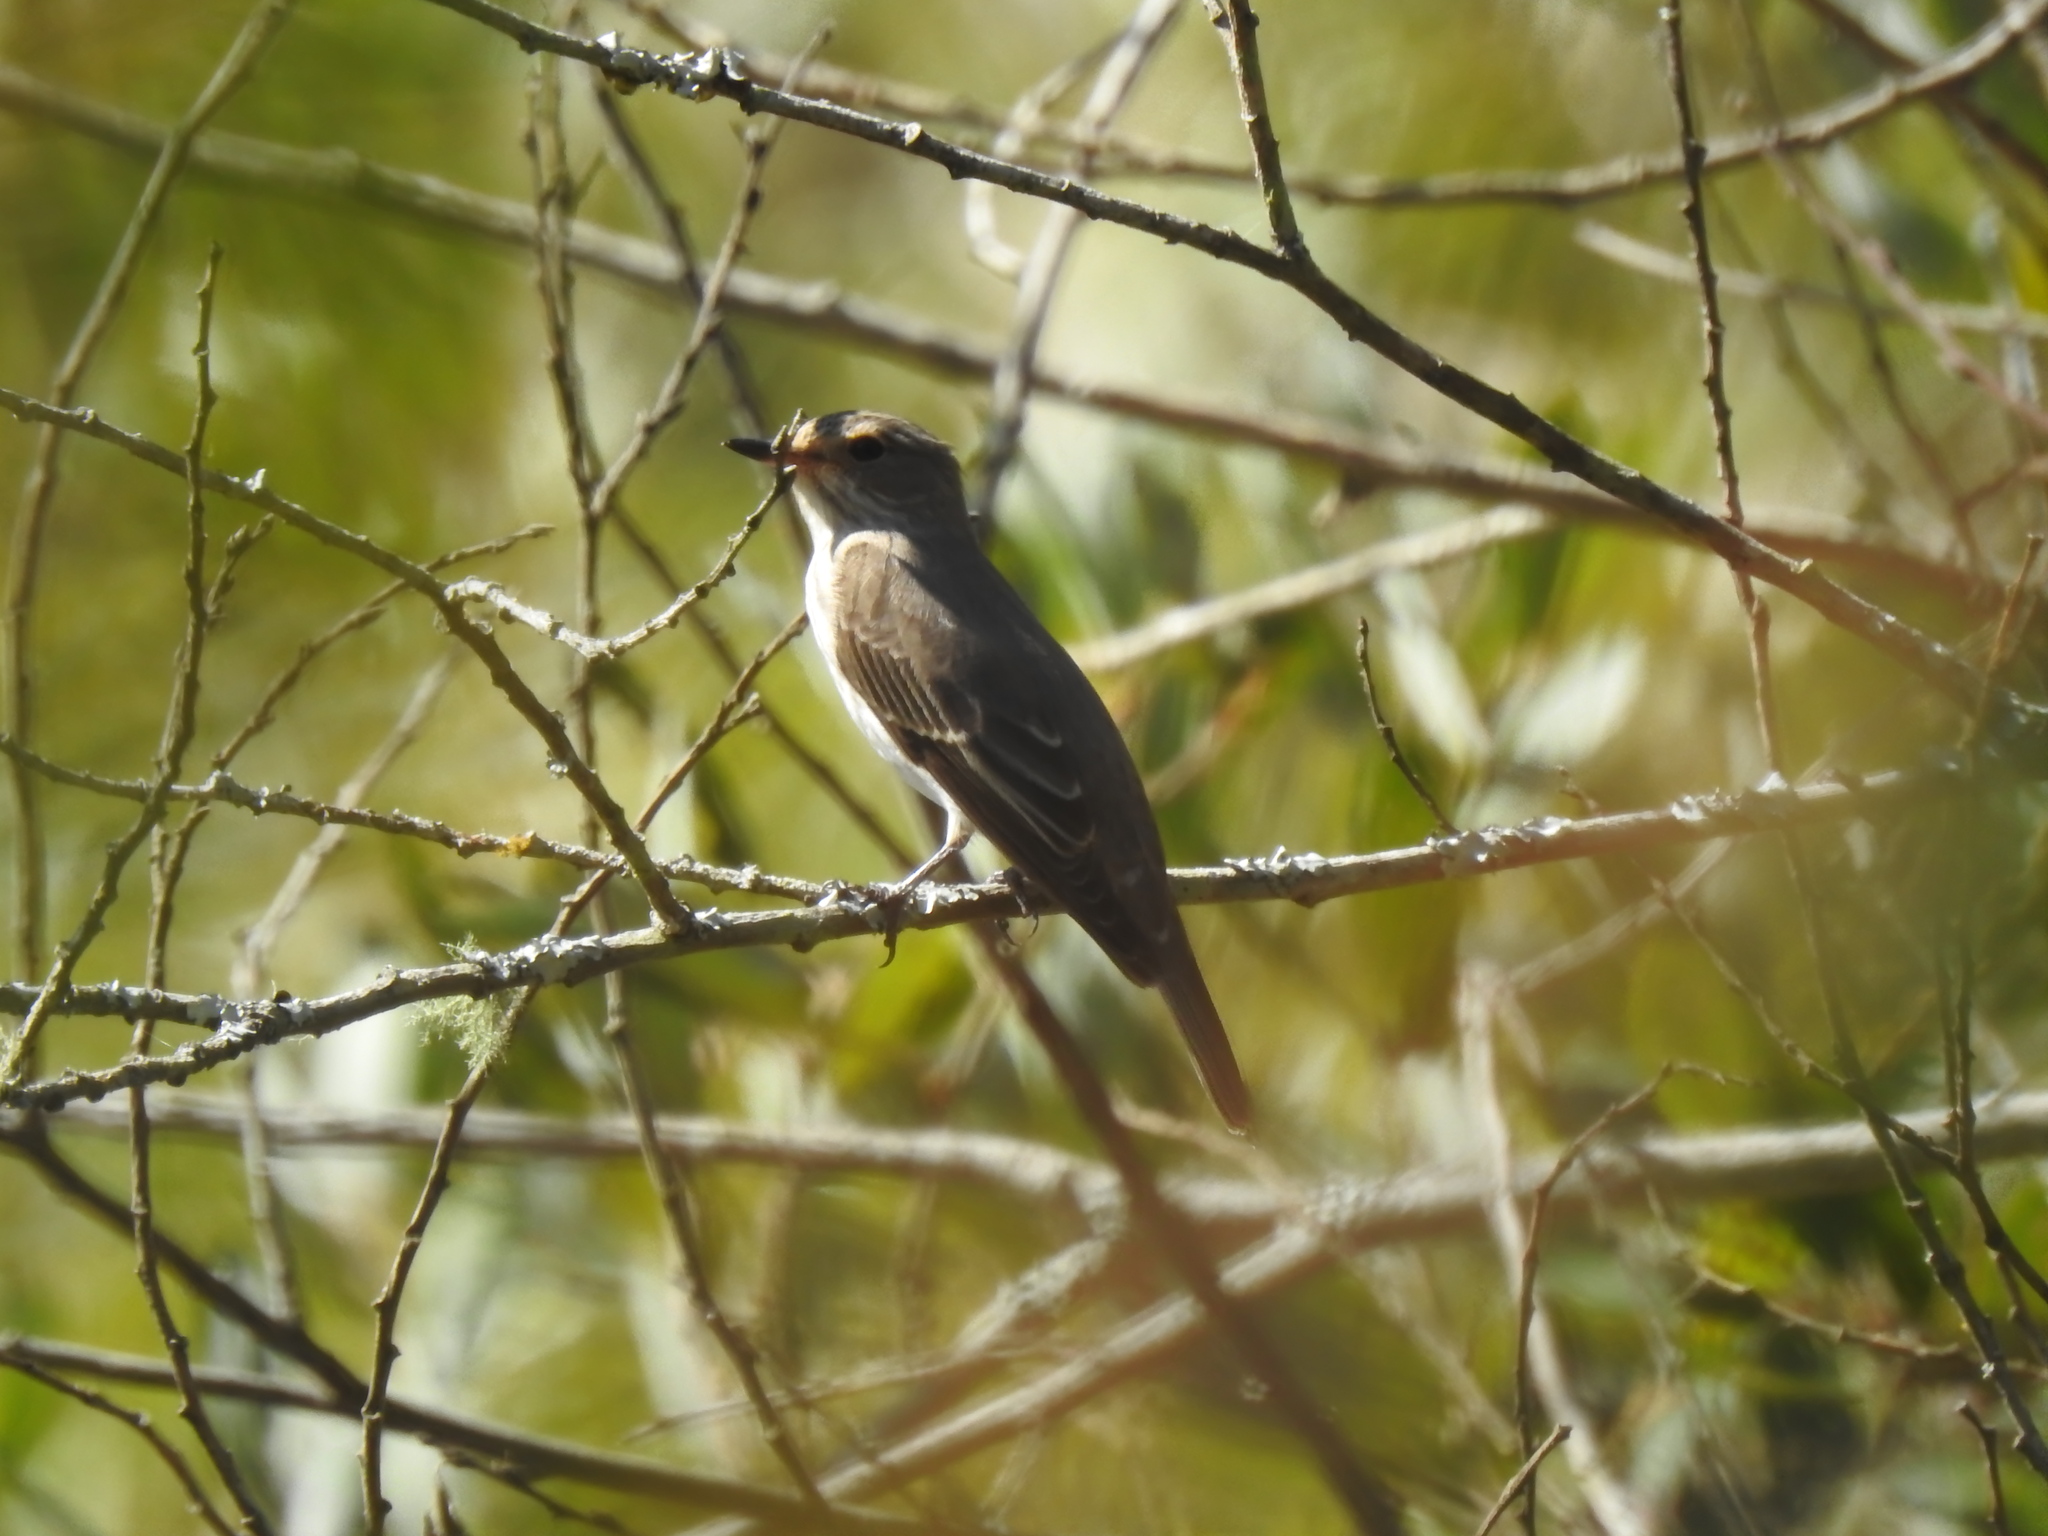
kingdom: Animalia
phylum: Chordata
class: Aves
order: Passeriformes
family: Muscicapidae
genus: Muscicapa
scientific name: Muscicapa striata
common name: Spotted flycatcher
